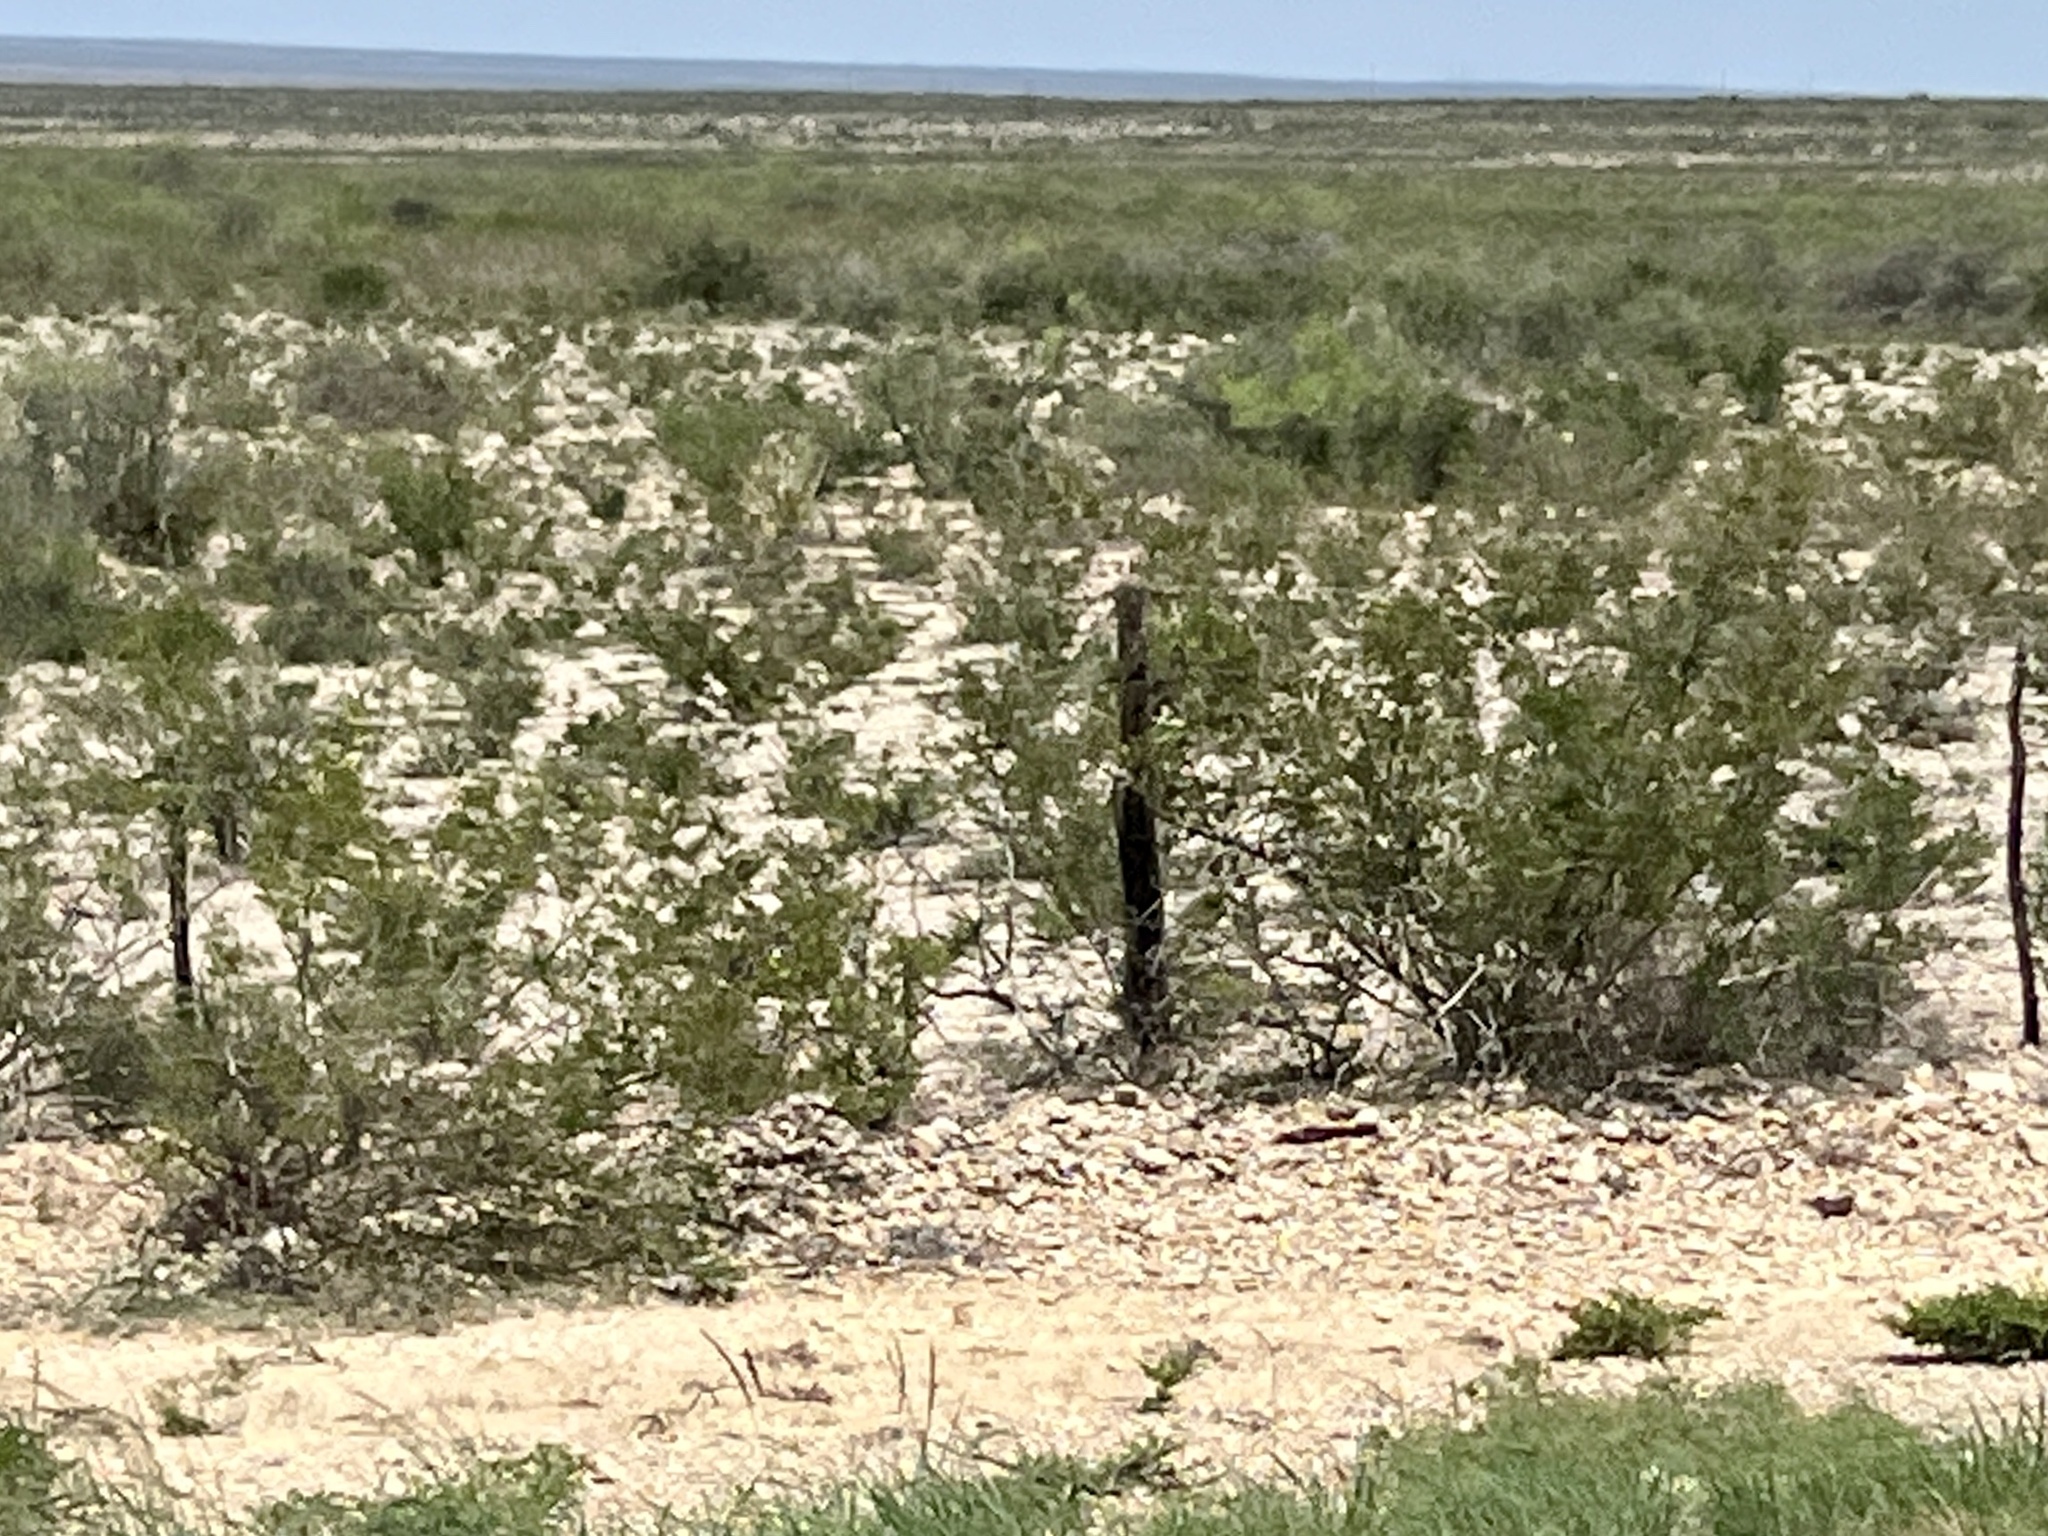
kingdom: Plantae
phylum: Tracheophyta
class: Magnoliopsida
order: Zygophyllales
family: Zygophyllaceae
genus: Larrea
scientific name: Larrea tridentata
